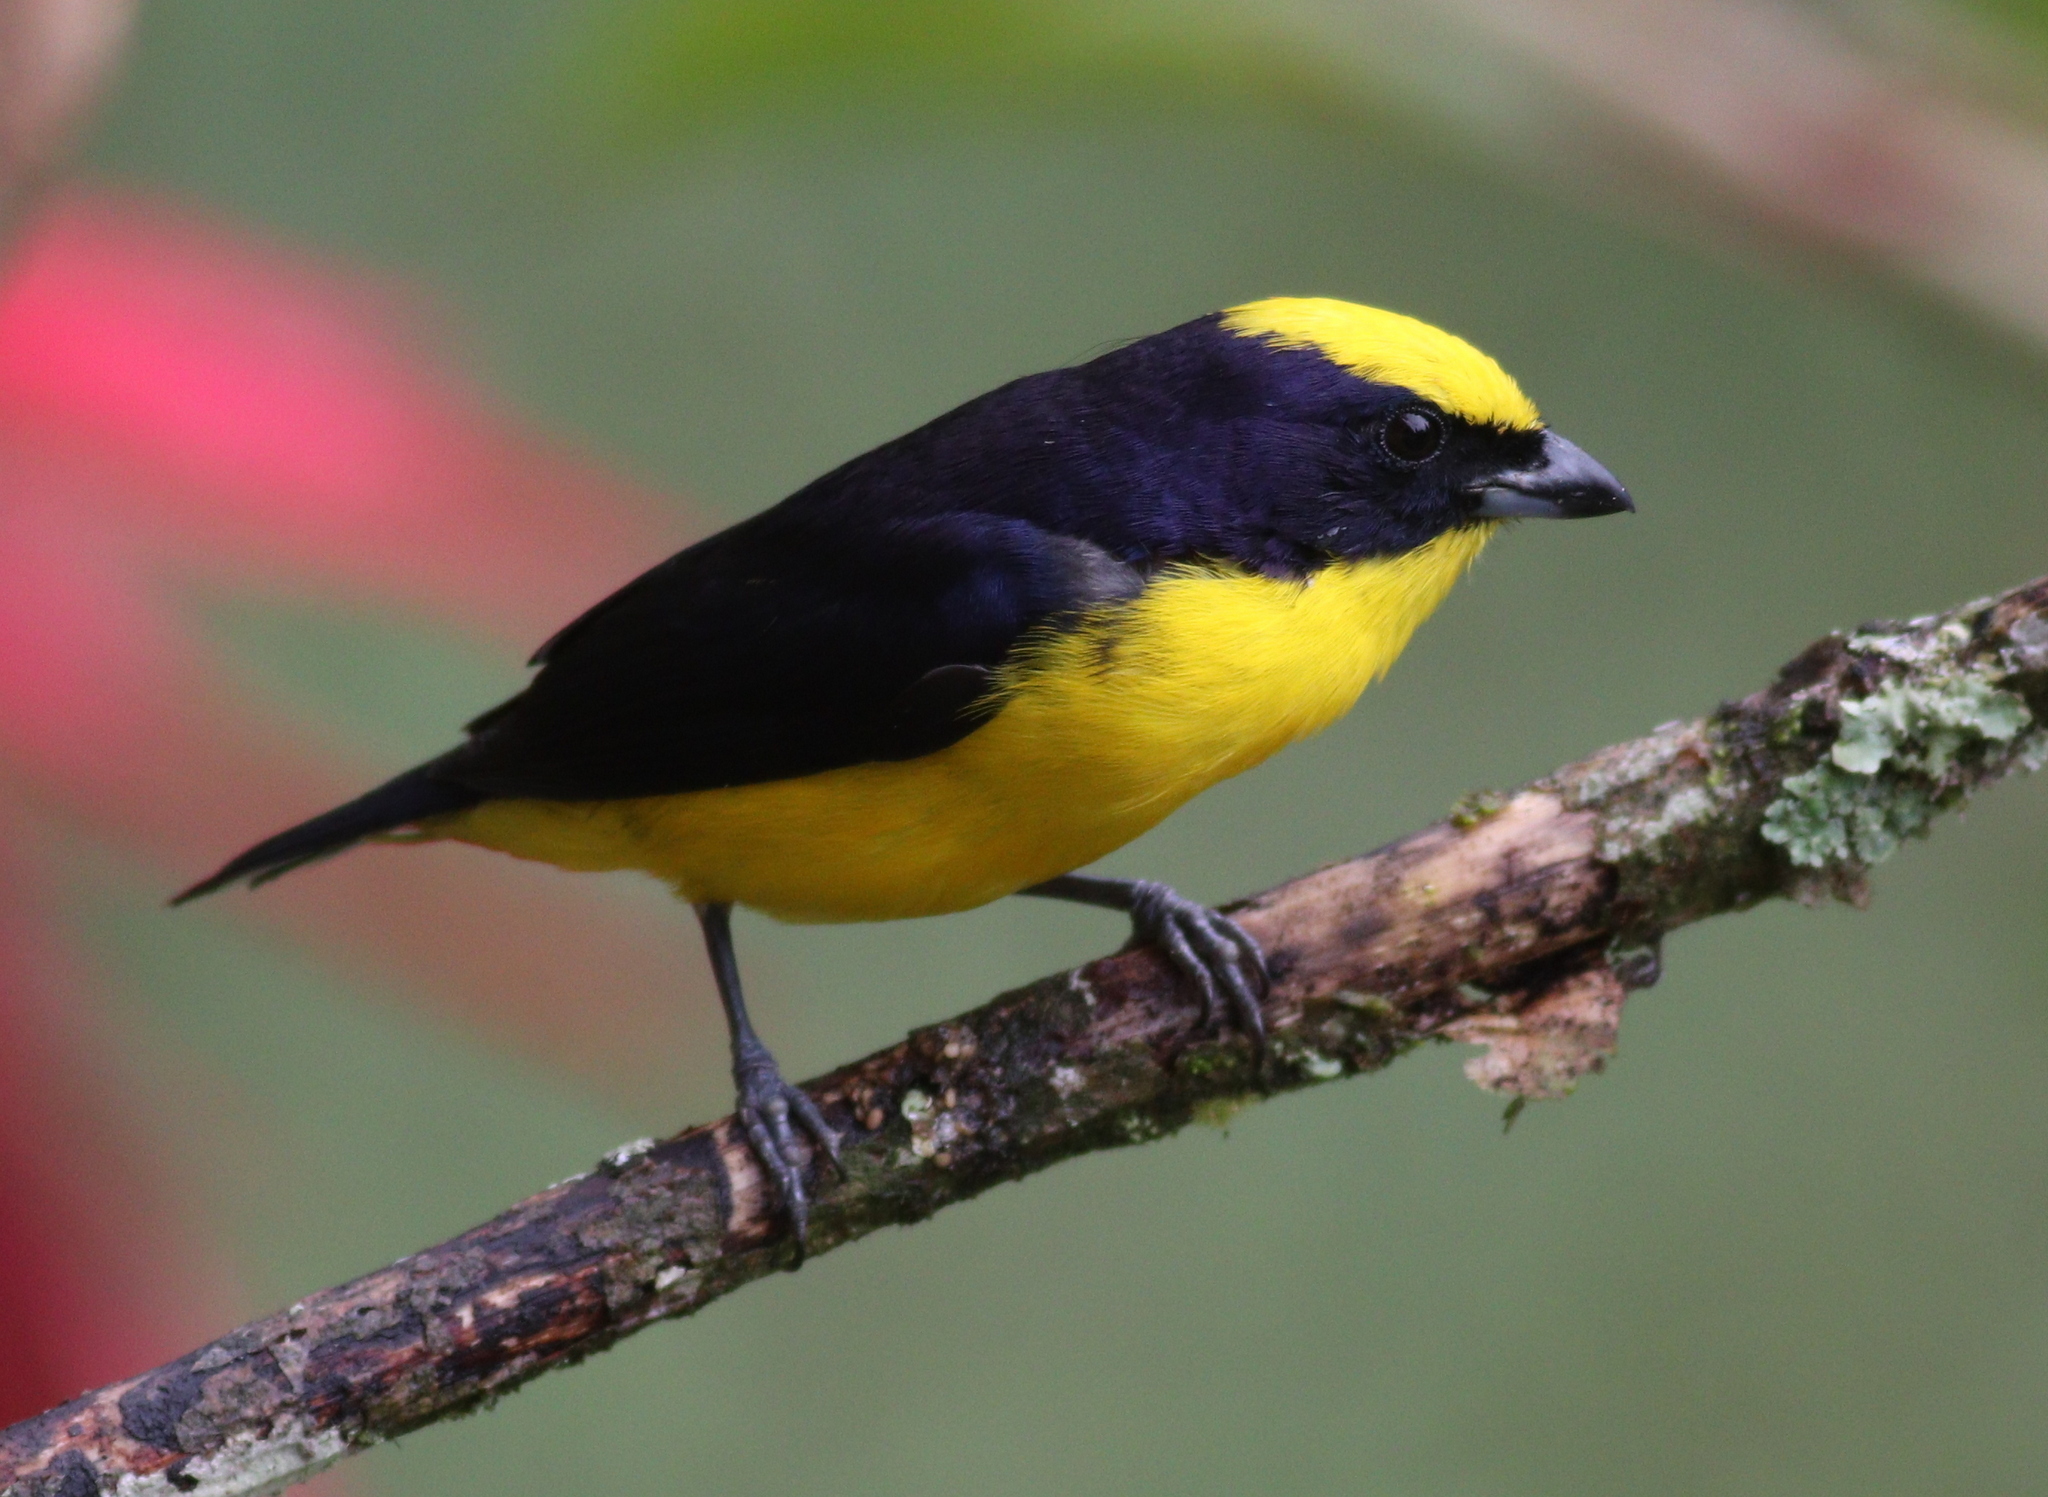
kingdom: Animalia
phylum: Chordata
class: Aves
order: Passeriformes
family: Fringillidae
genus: Euphonia
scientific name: Euphonia laniirostris
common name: Thick-billed euphonia
